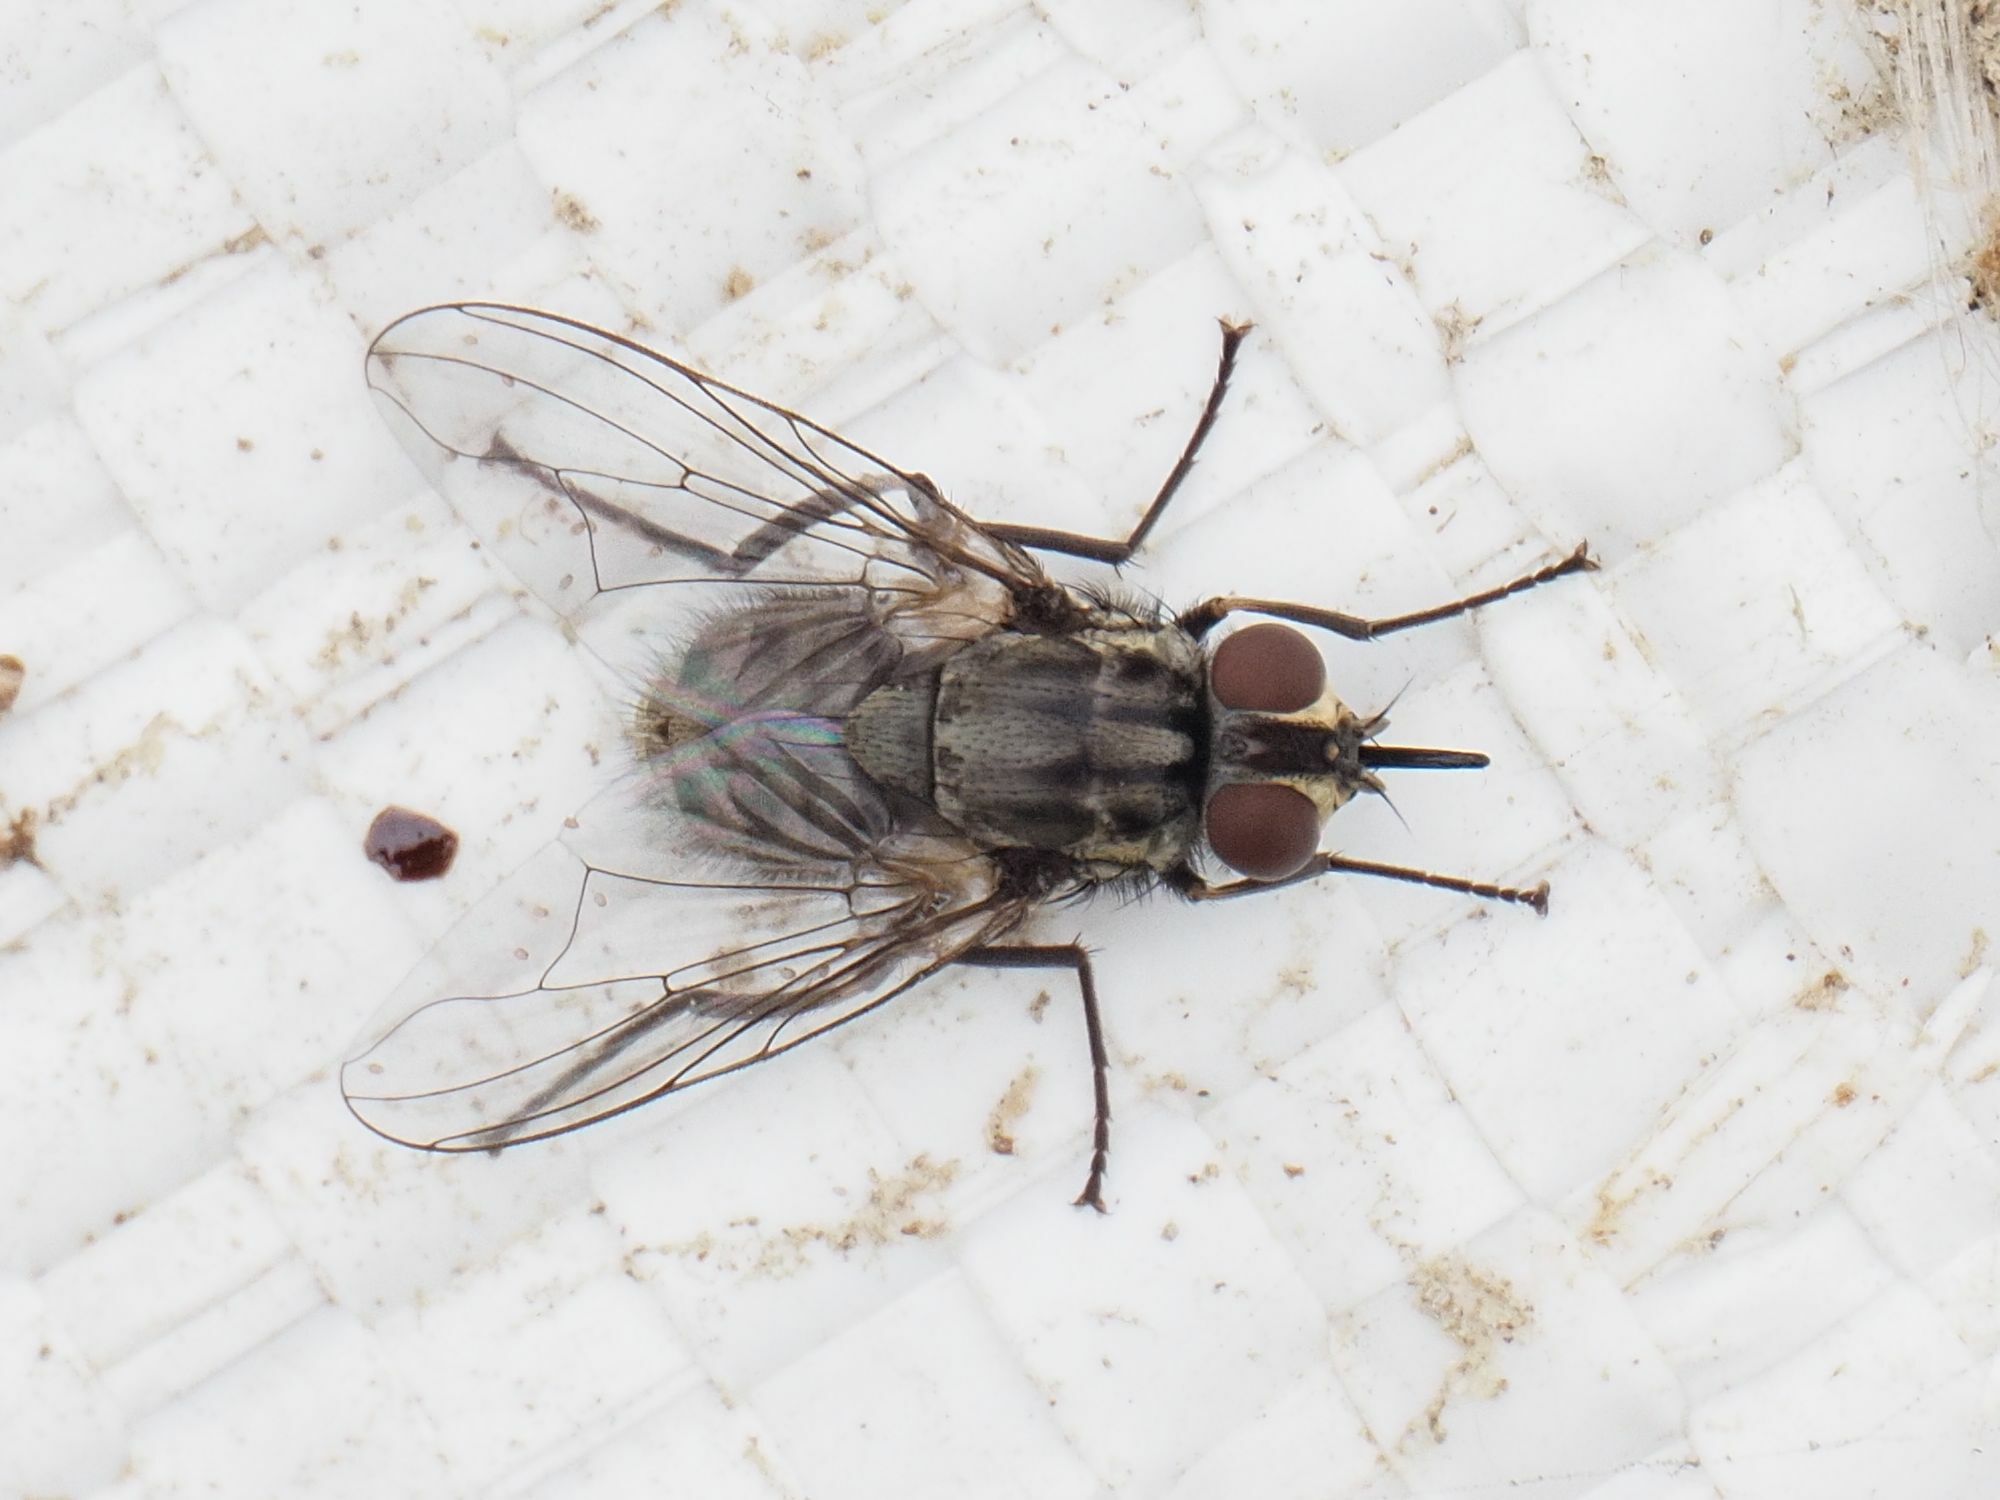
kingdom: Animalia
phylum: Arthropoda
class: Insecta
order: Diptera
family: Muscidae
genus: Stomoxys
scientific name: Stomoxys calcitrans
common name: Stable fly
